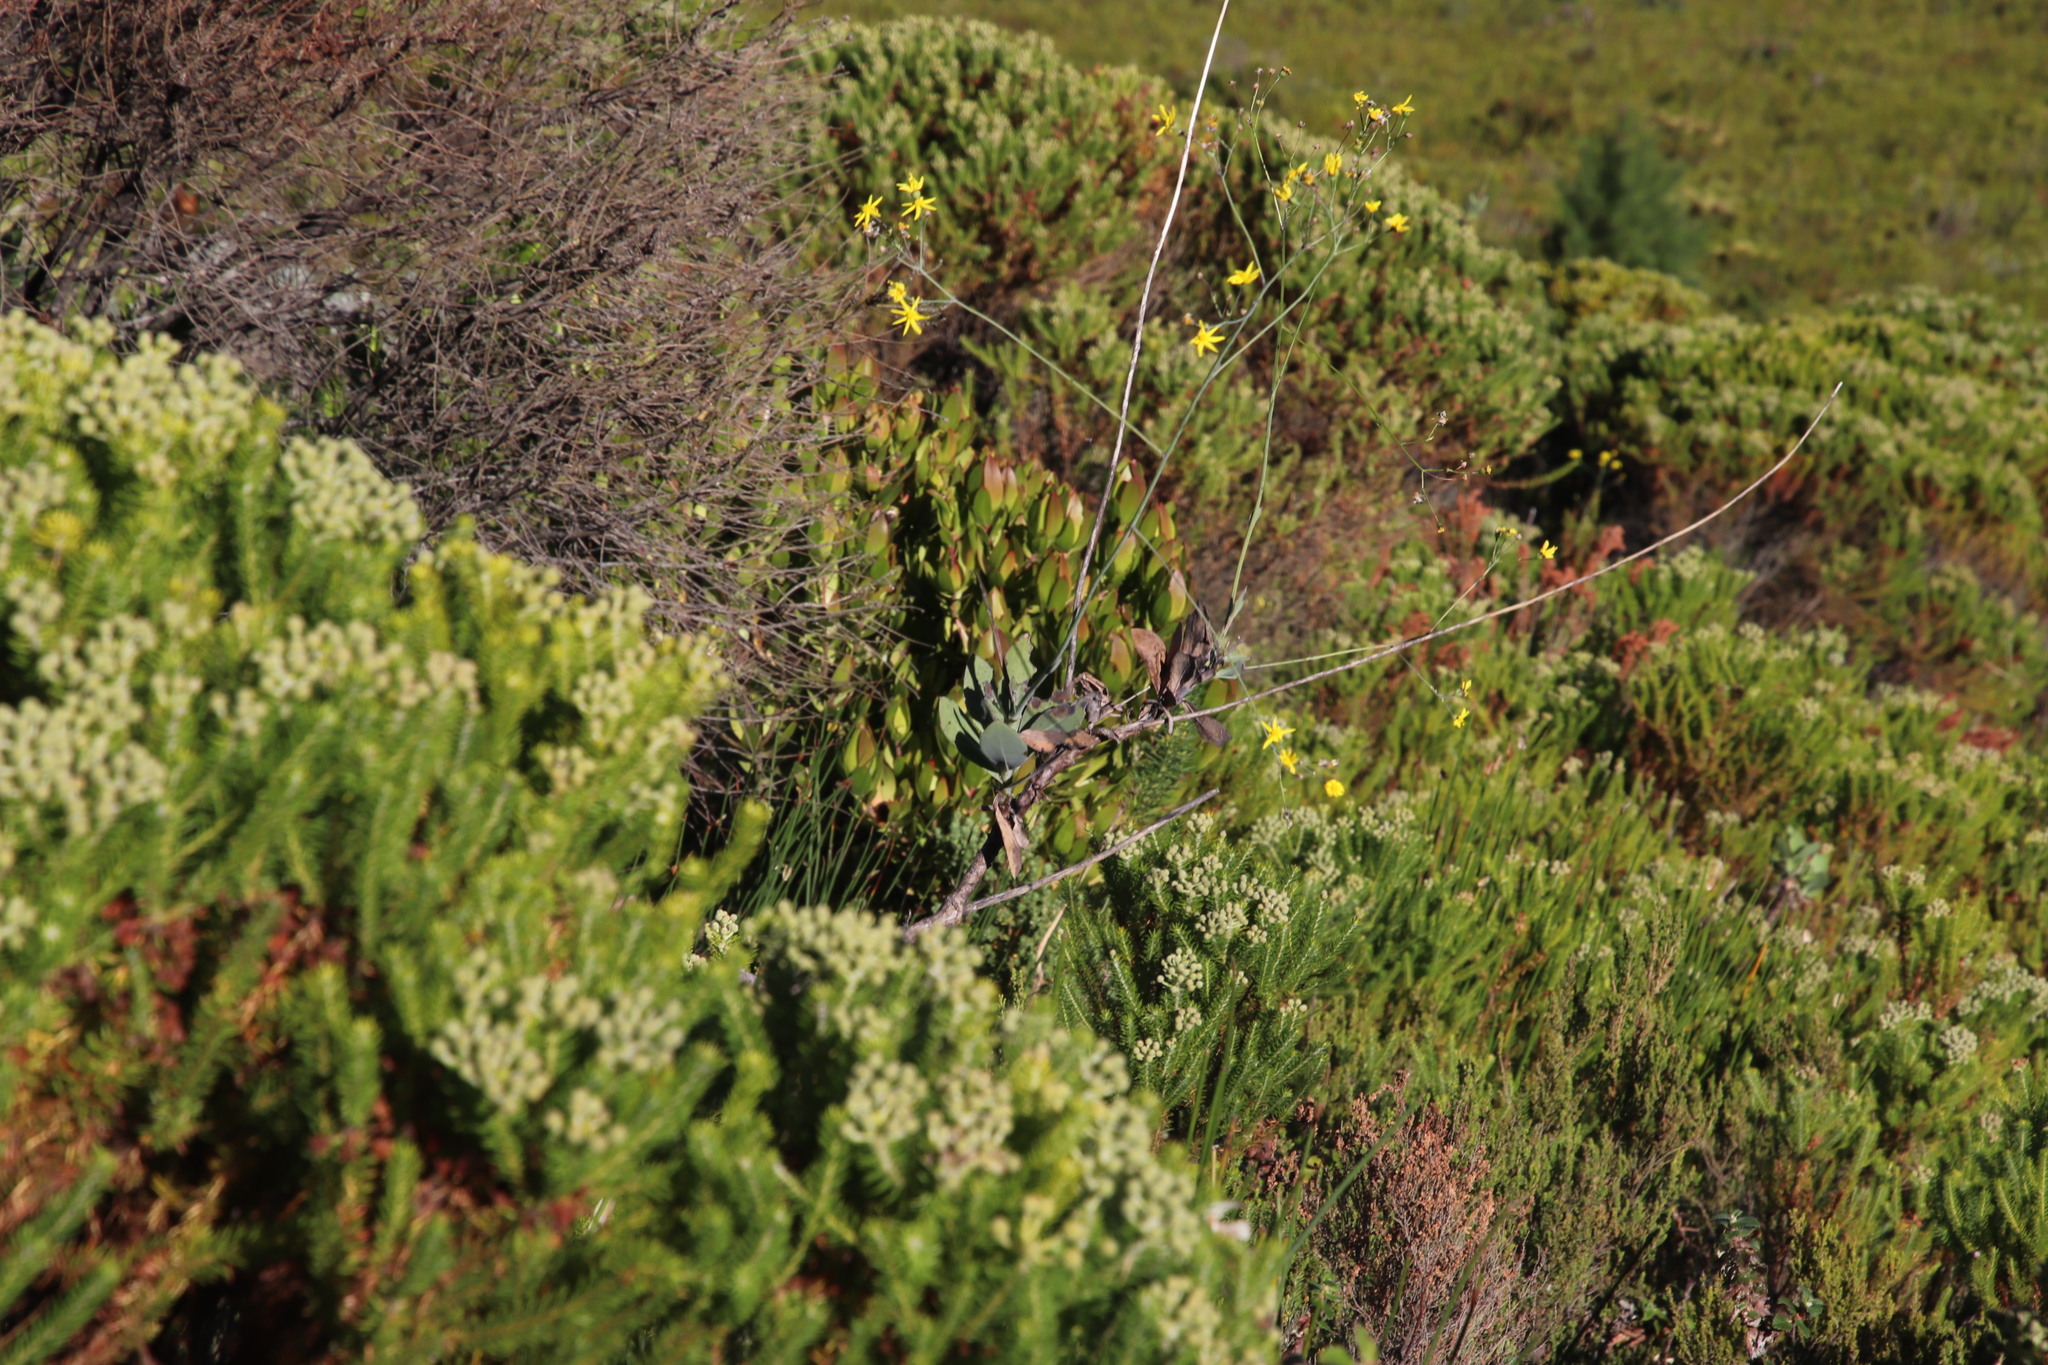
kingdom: Plantae
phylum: Tracheophyta
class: Magnoliopsida
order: Asterales
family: Asteraceae
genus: Othonna
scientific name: Othonna quinquedentata
